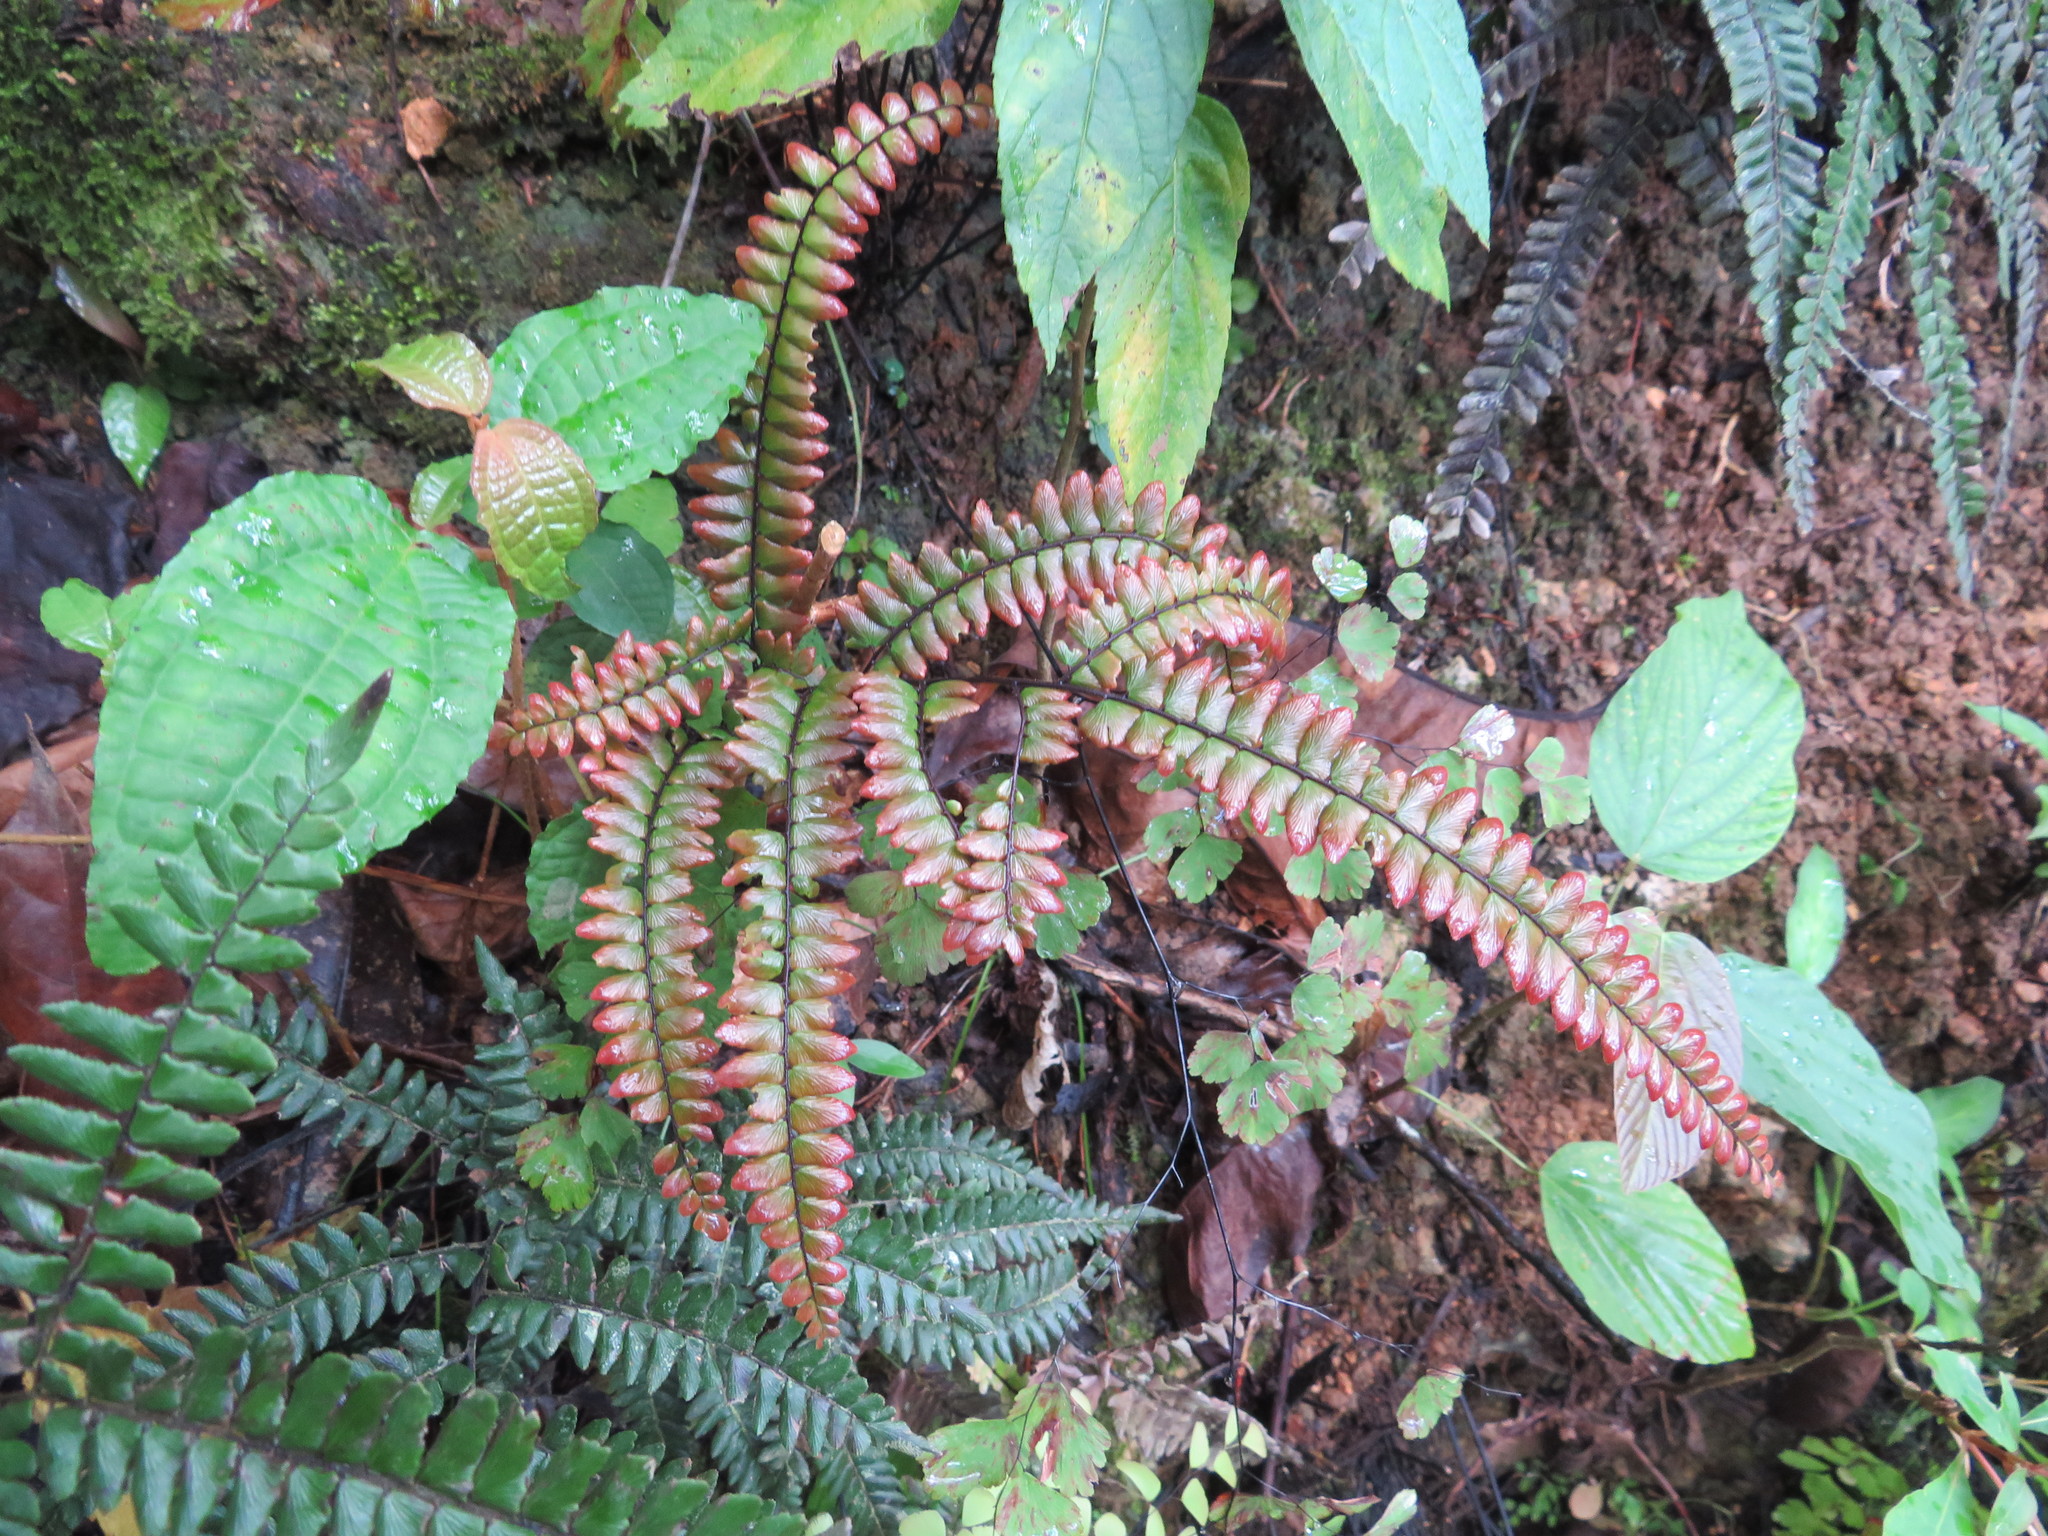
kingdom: Plantae
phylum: Tracheophyta
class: Polypodiopsida
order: Polypodiales
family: Pteridaceae
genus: Adiantum
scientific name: Adiantum pyramidale
